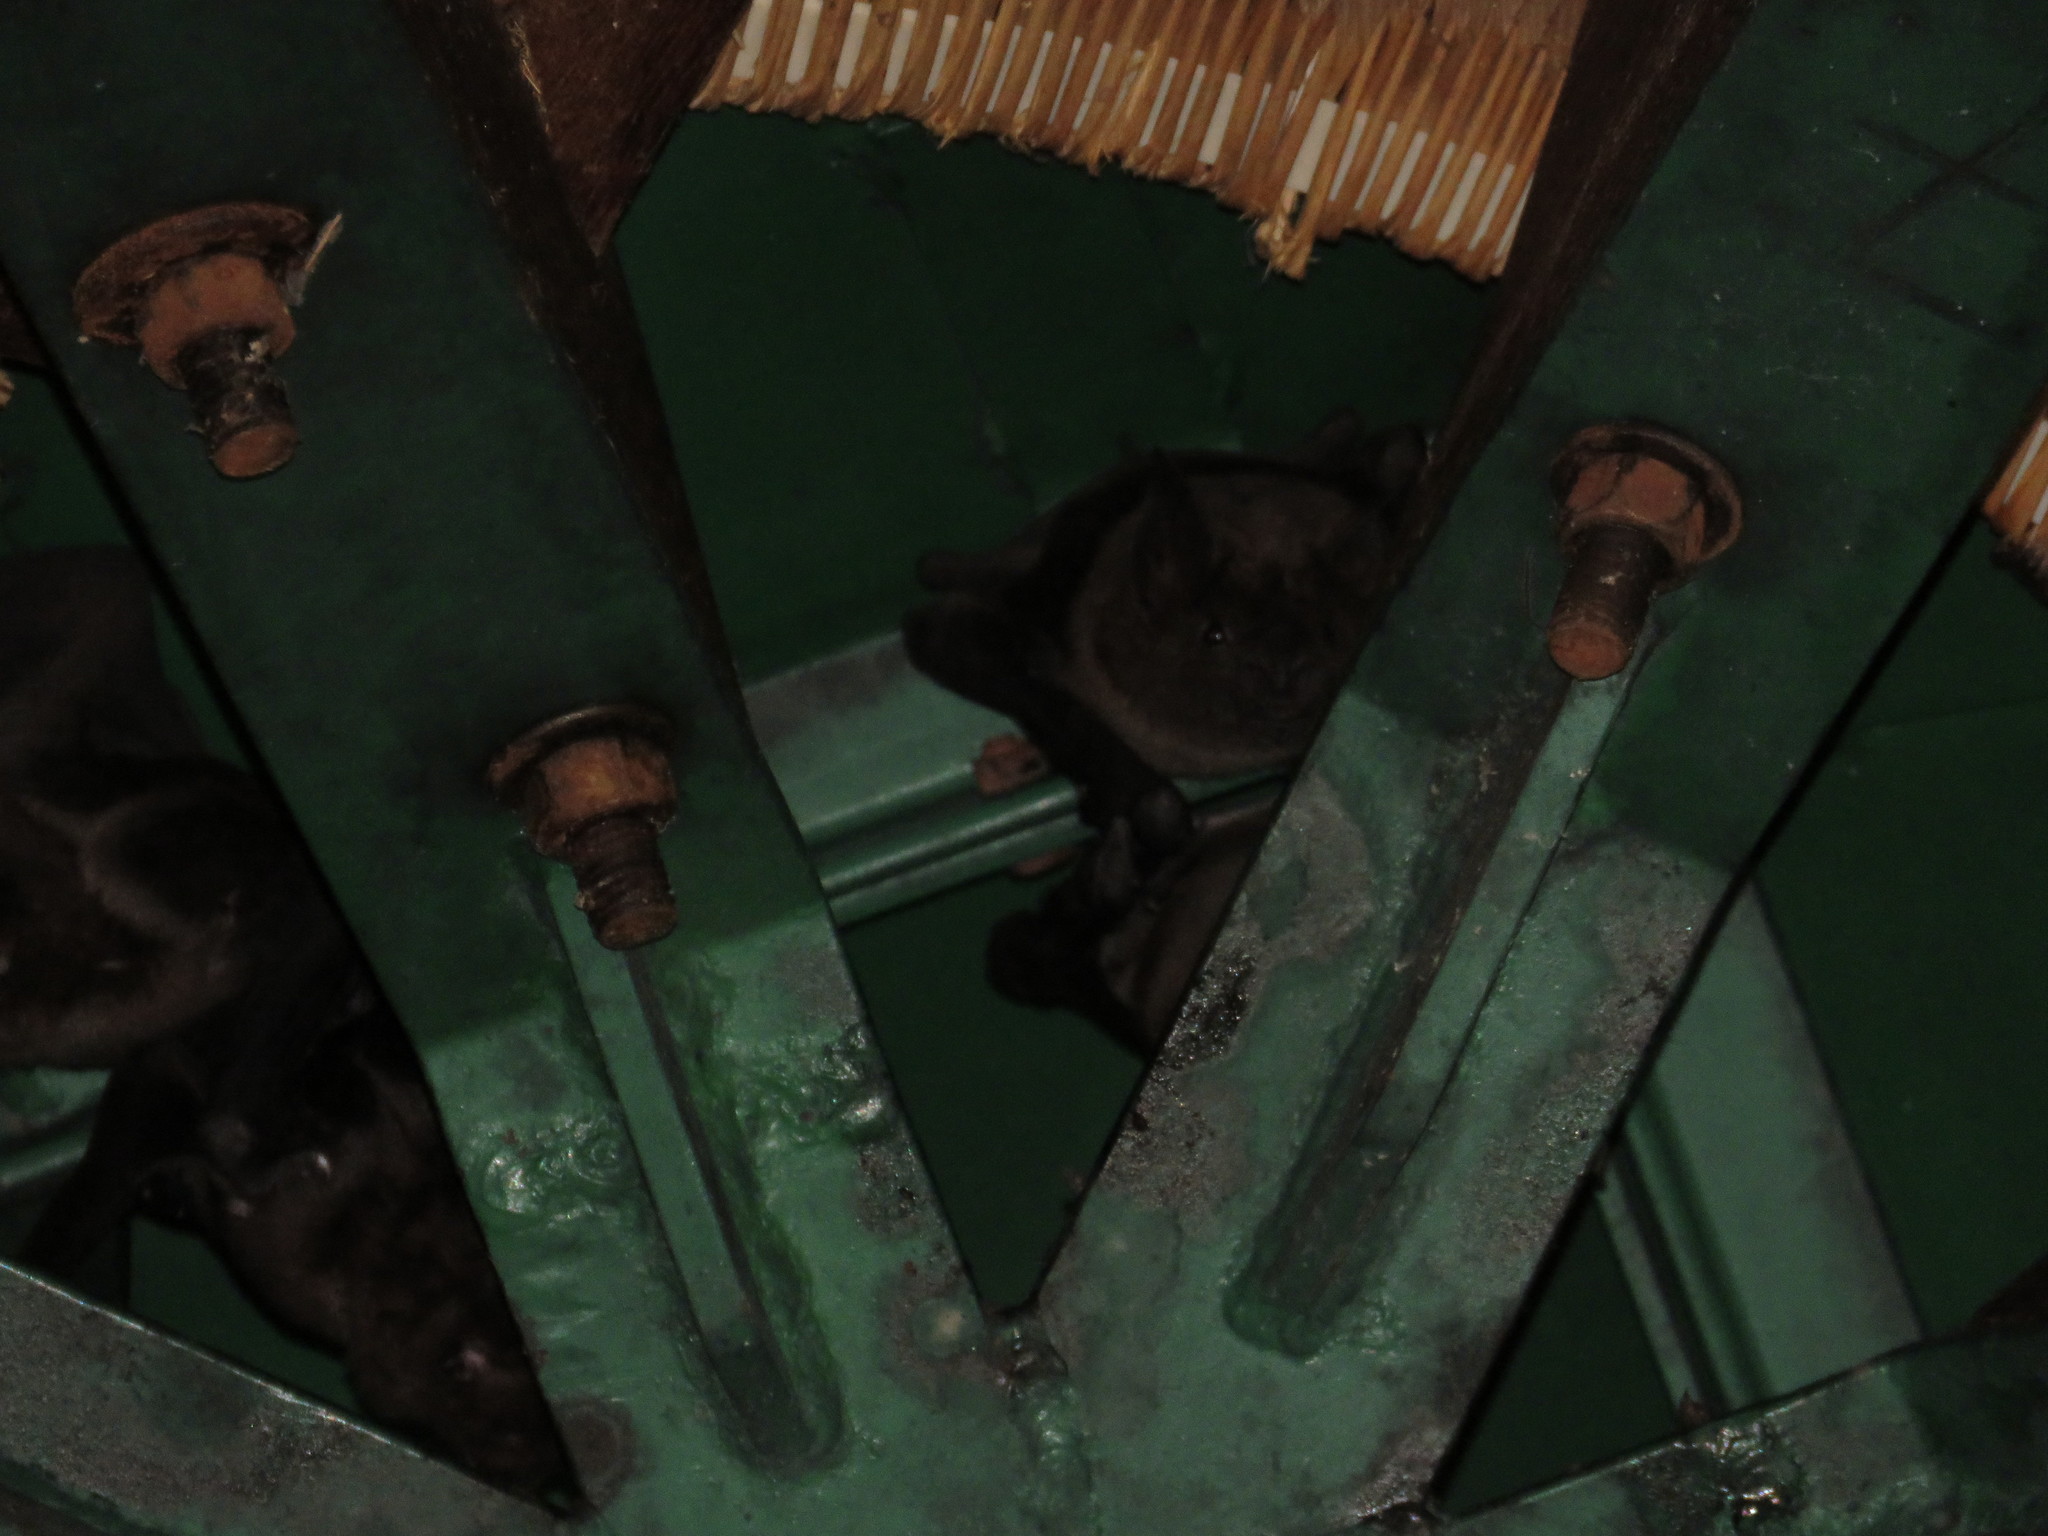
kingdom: Animalia
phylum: Chordata
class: Mammalia
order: Chiroptera
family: Phyllostomidae
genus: Phyllostomus
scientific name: Phyllostomus hastatus
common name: Greater spear-nosed bat
